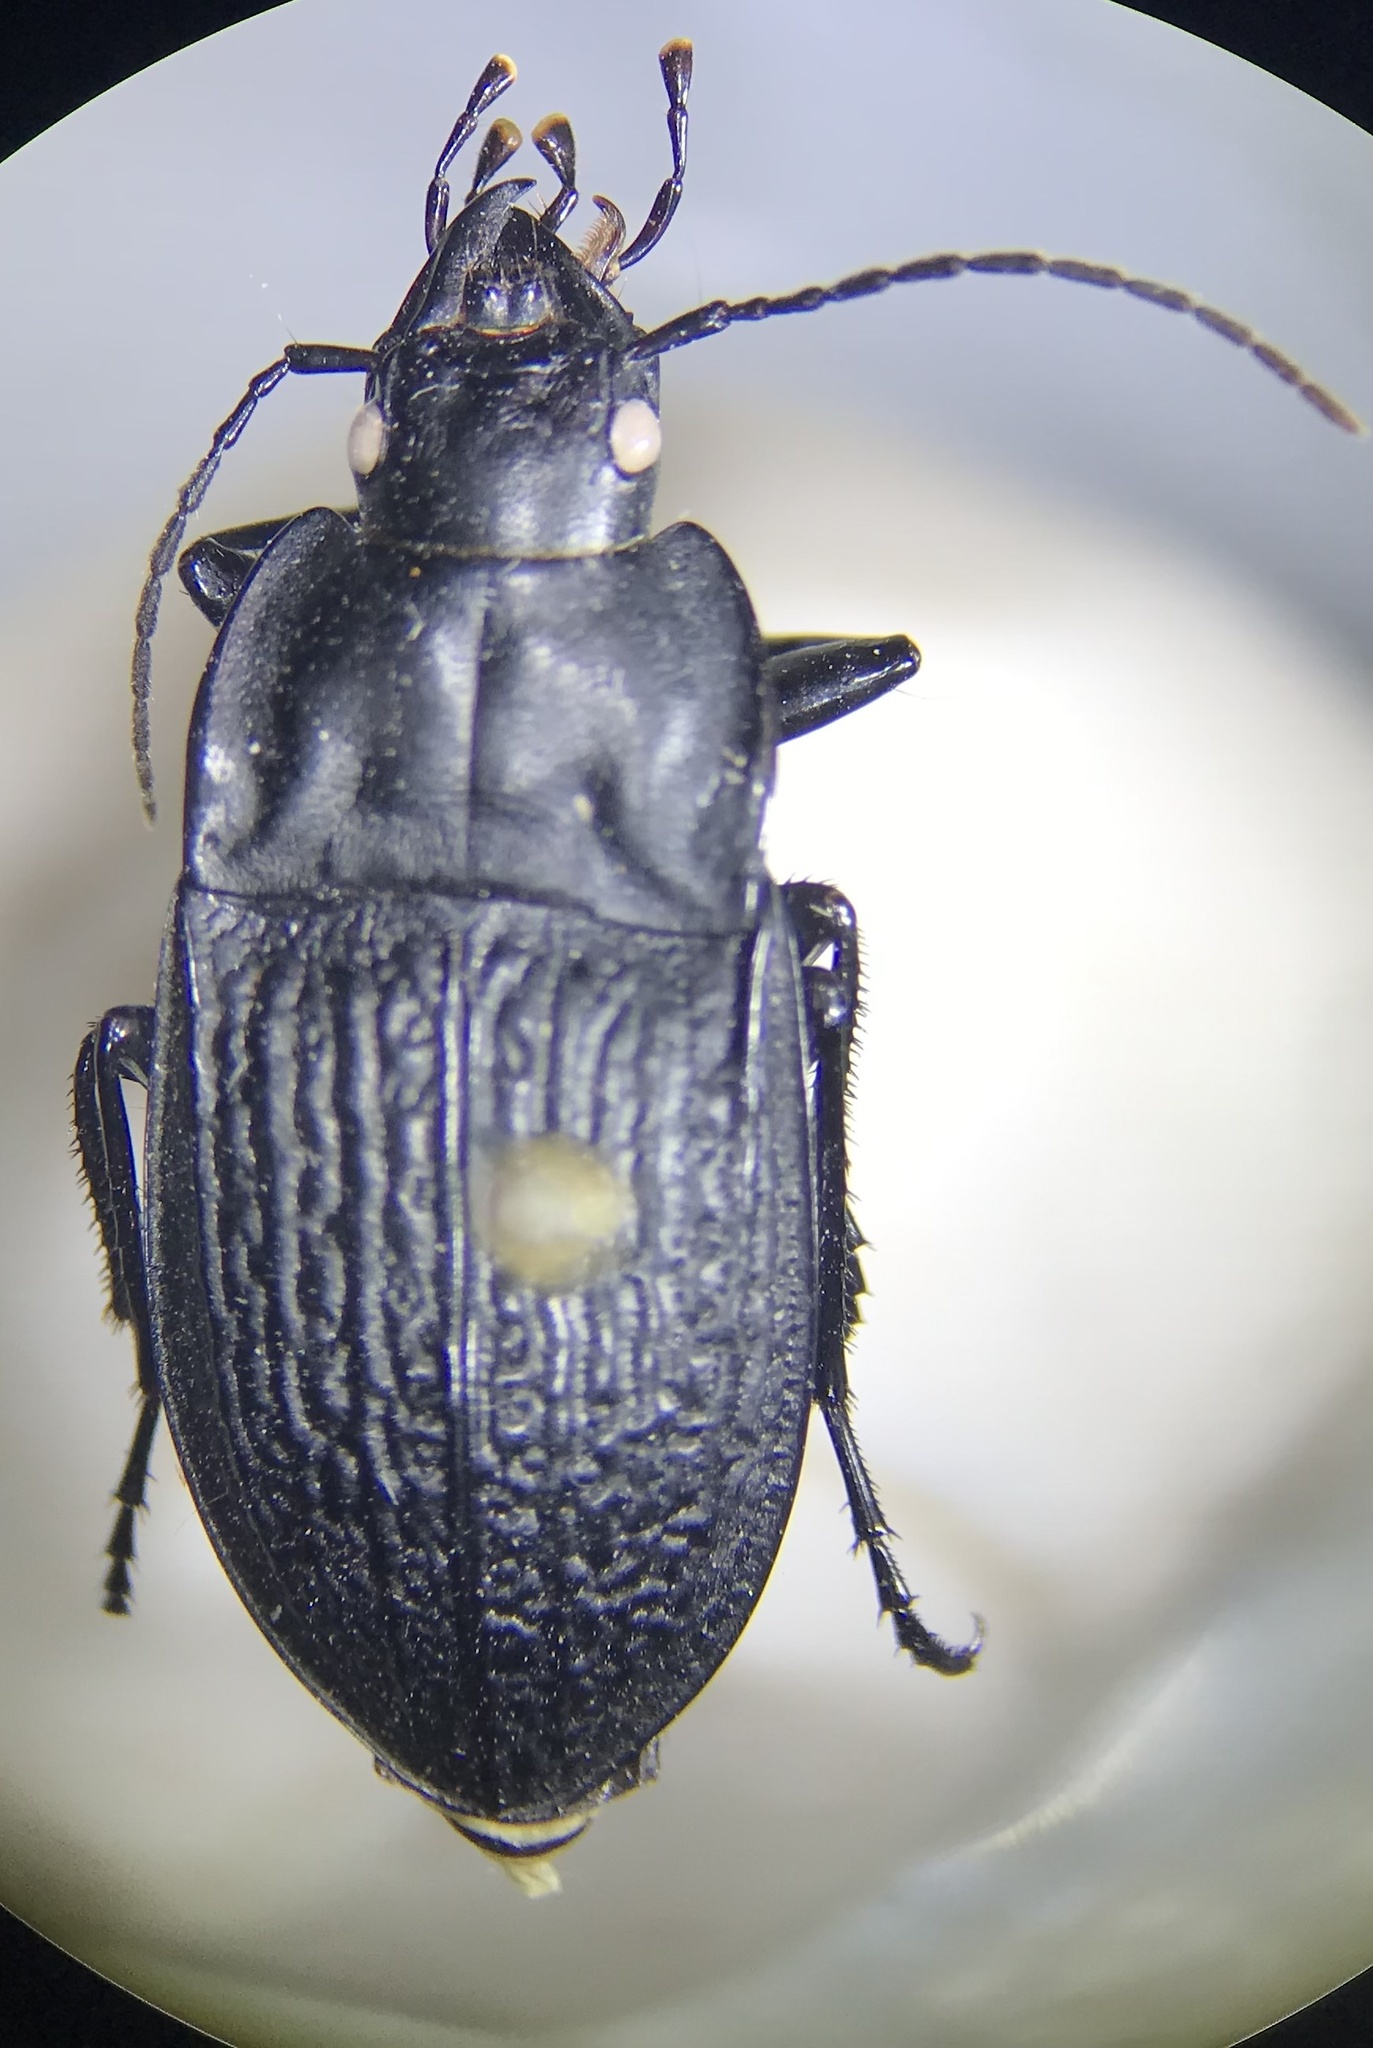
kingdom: Animalia
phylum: Arthropoda
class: Insecta
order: Coleoptera
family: Carabidae
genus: Dicaelus
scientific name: Dicaelus sculptilis
